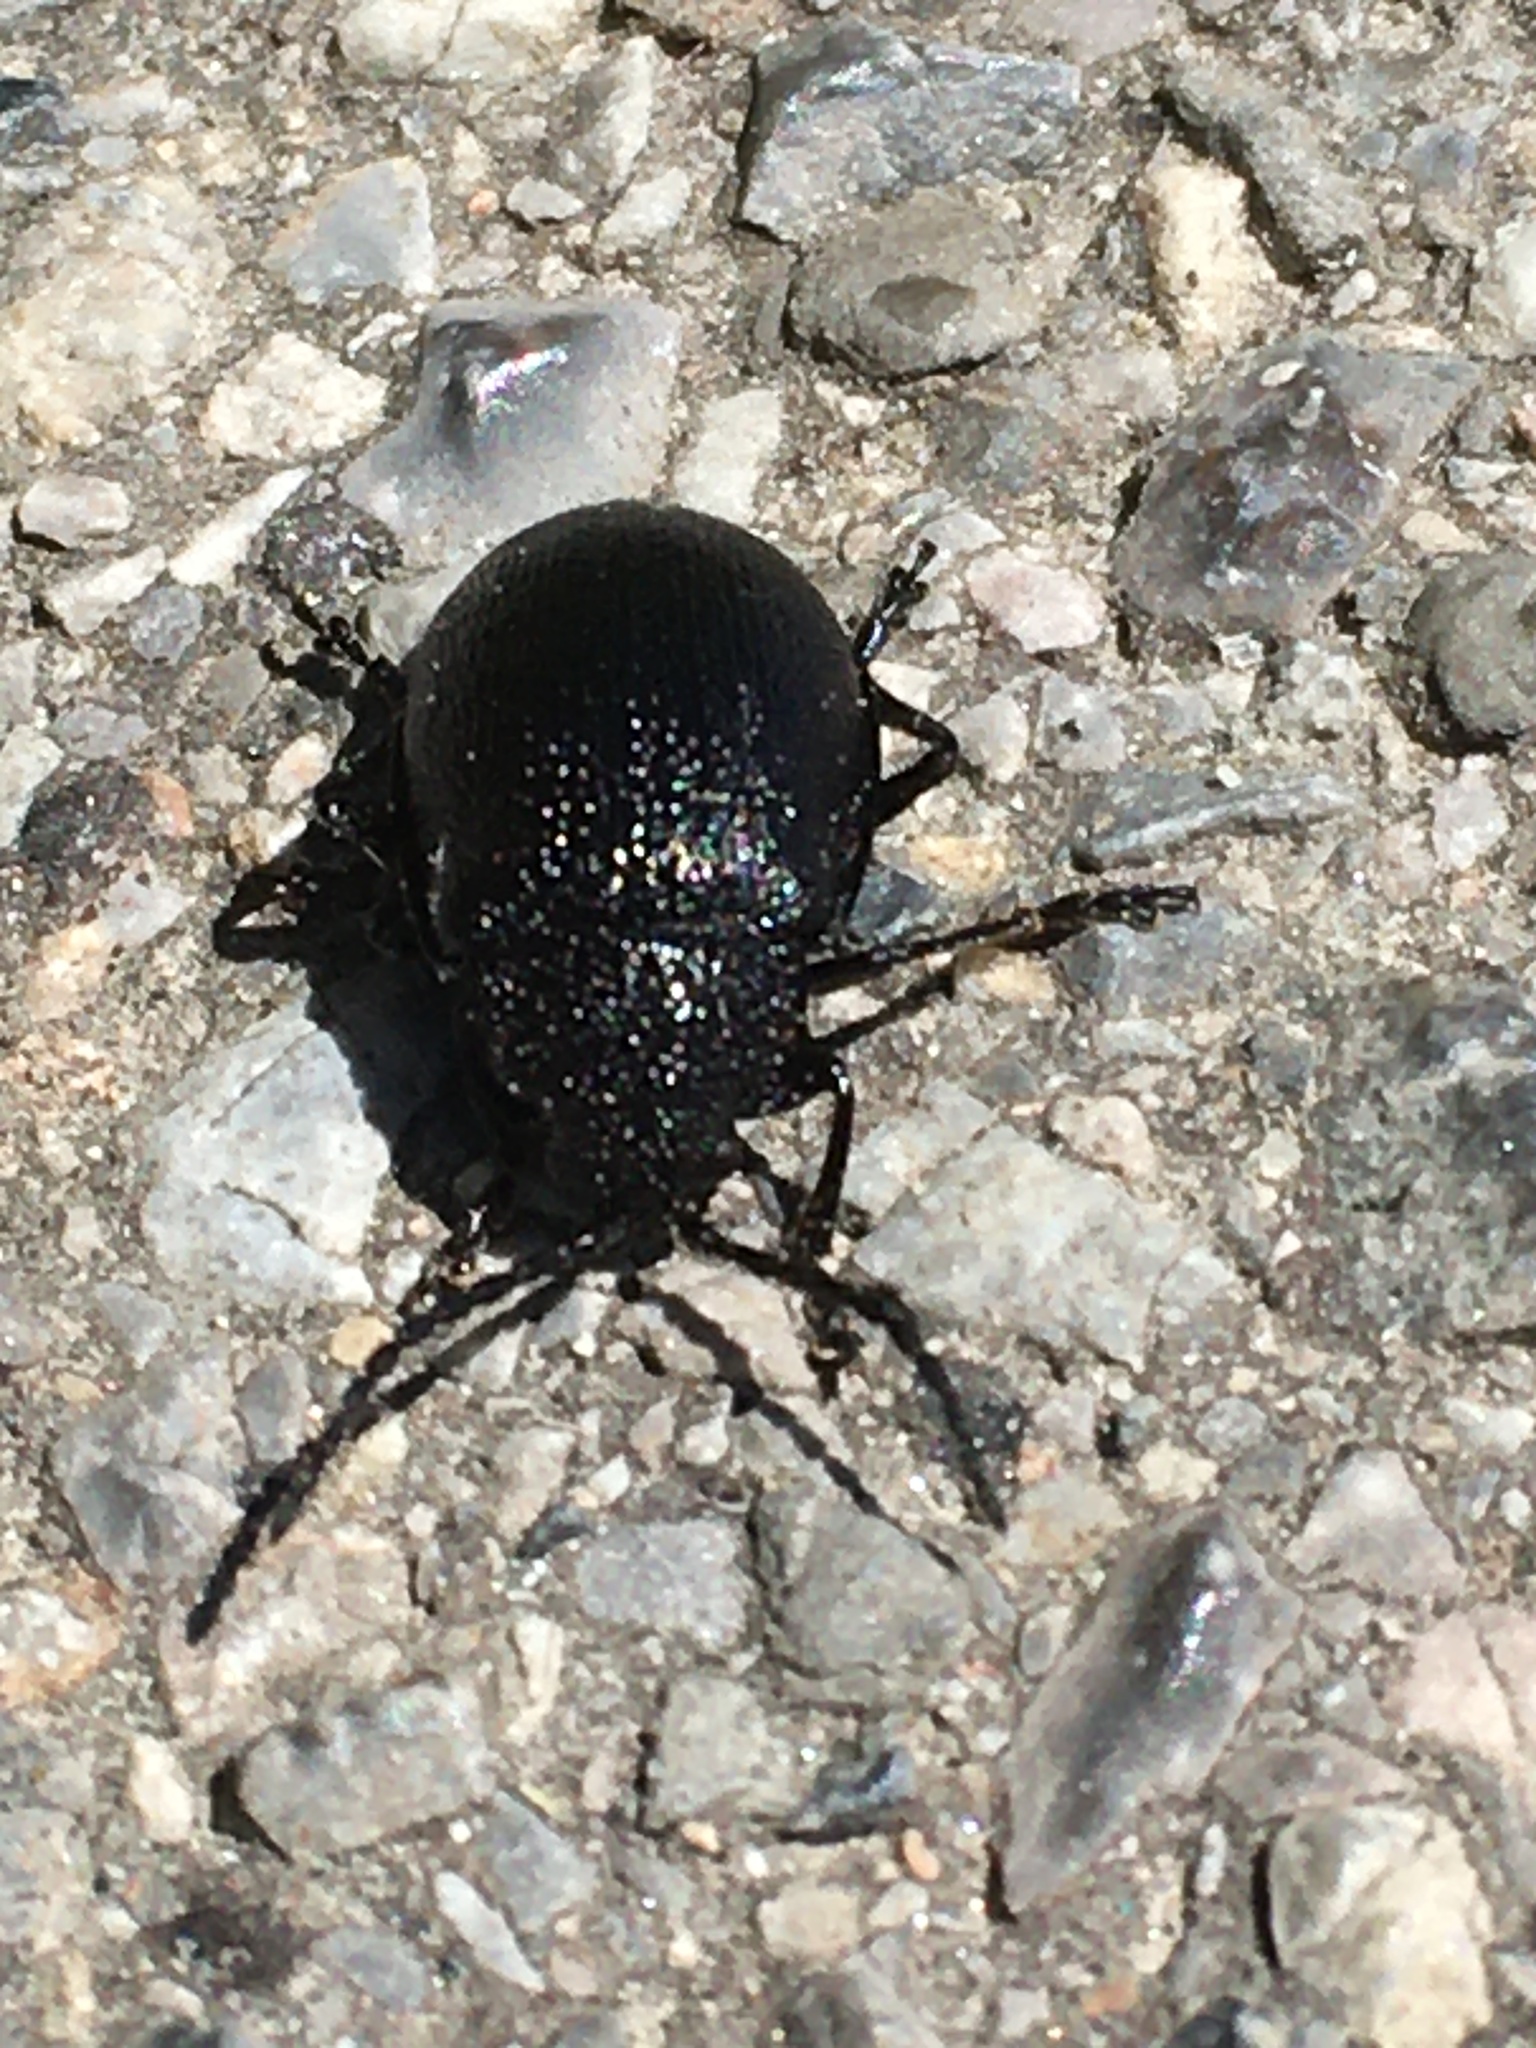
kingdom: Animalia
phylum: Arthropoda
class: Insecta
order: Coleoptera
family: Chrysomelidae
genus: Galeruca
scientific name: Galeruca tanaceti
